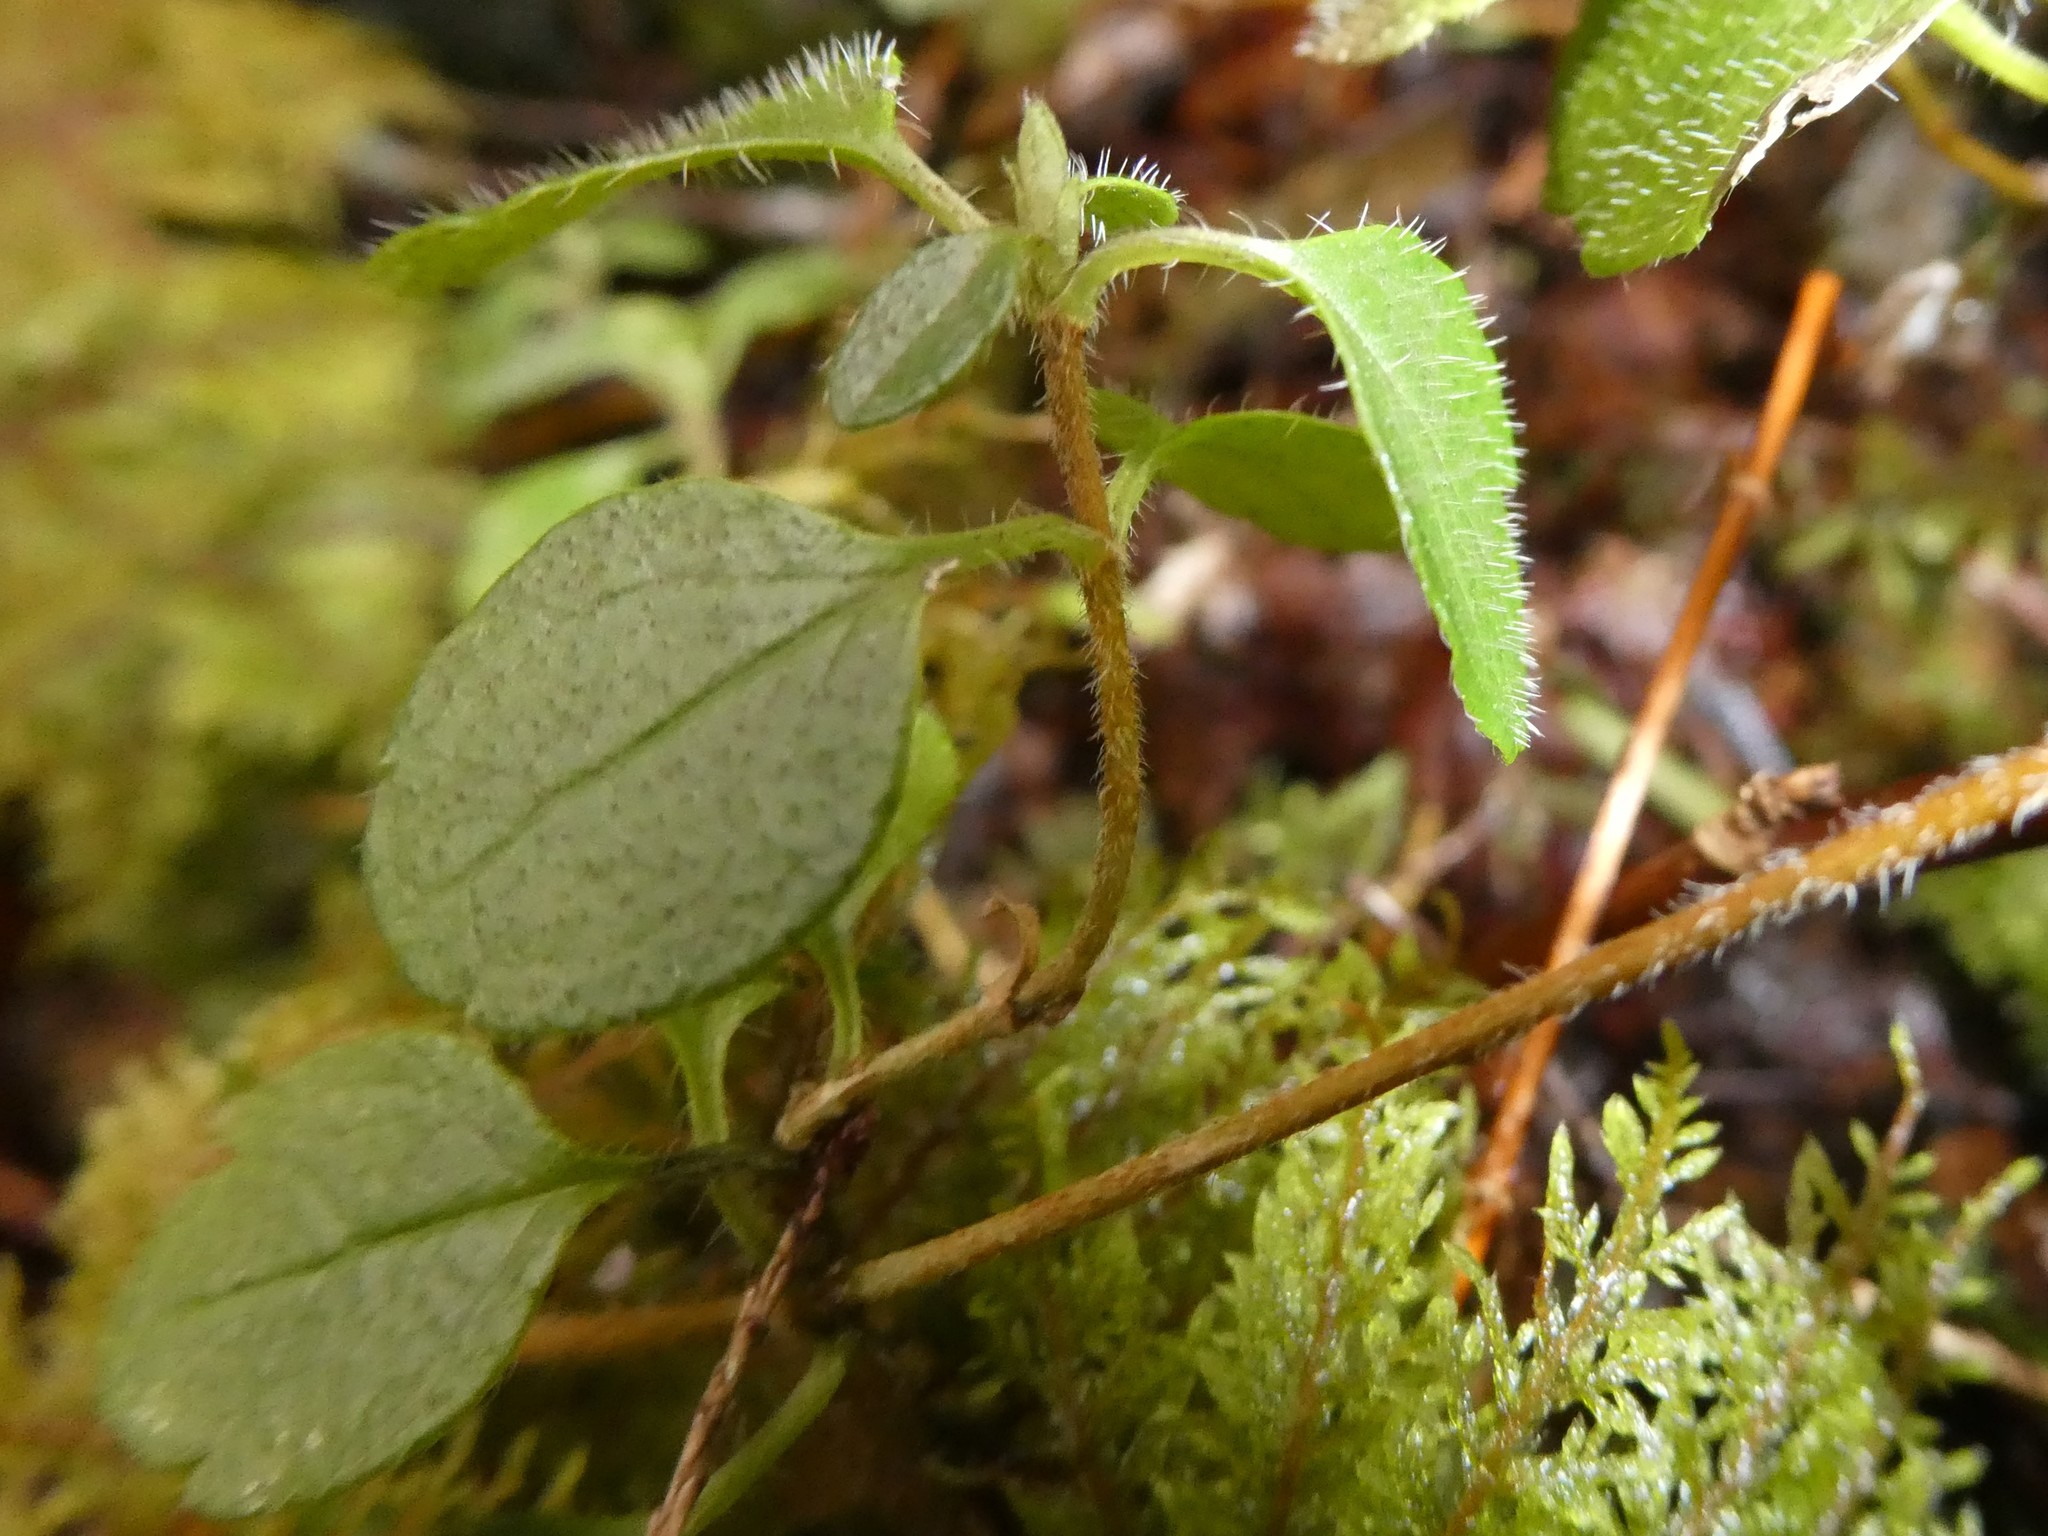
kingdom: Plantae
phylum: Tracheophyta
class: Magnoliopsida
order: Dipsacales
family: Caprifoliaceae
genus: Linnaea
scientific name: Linnaea borealis
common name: Twinflower
